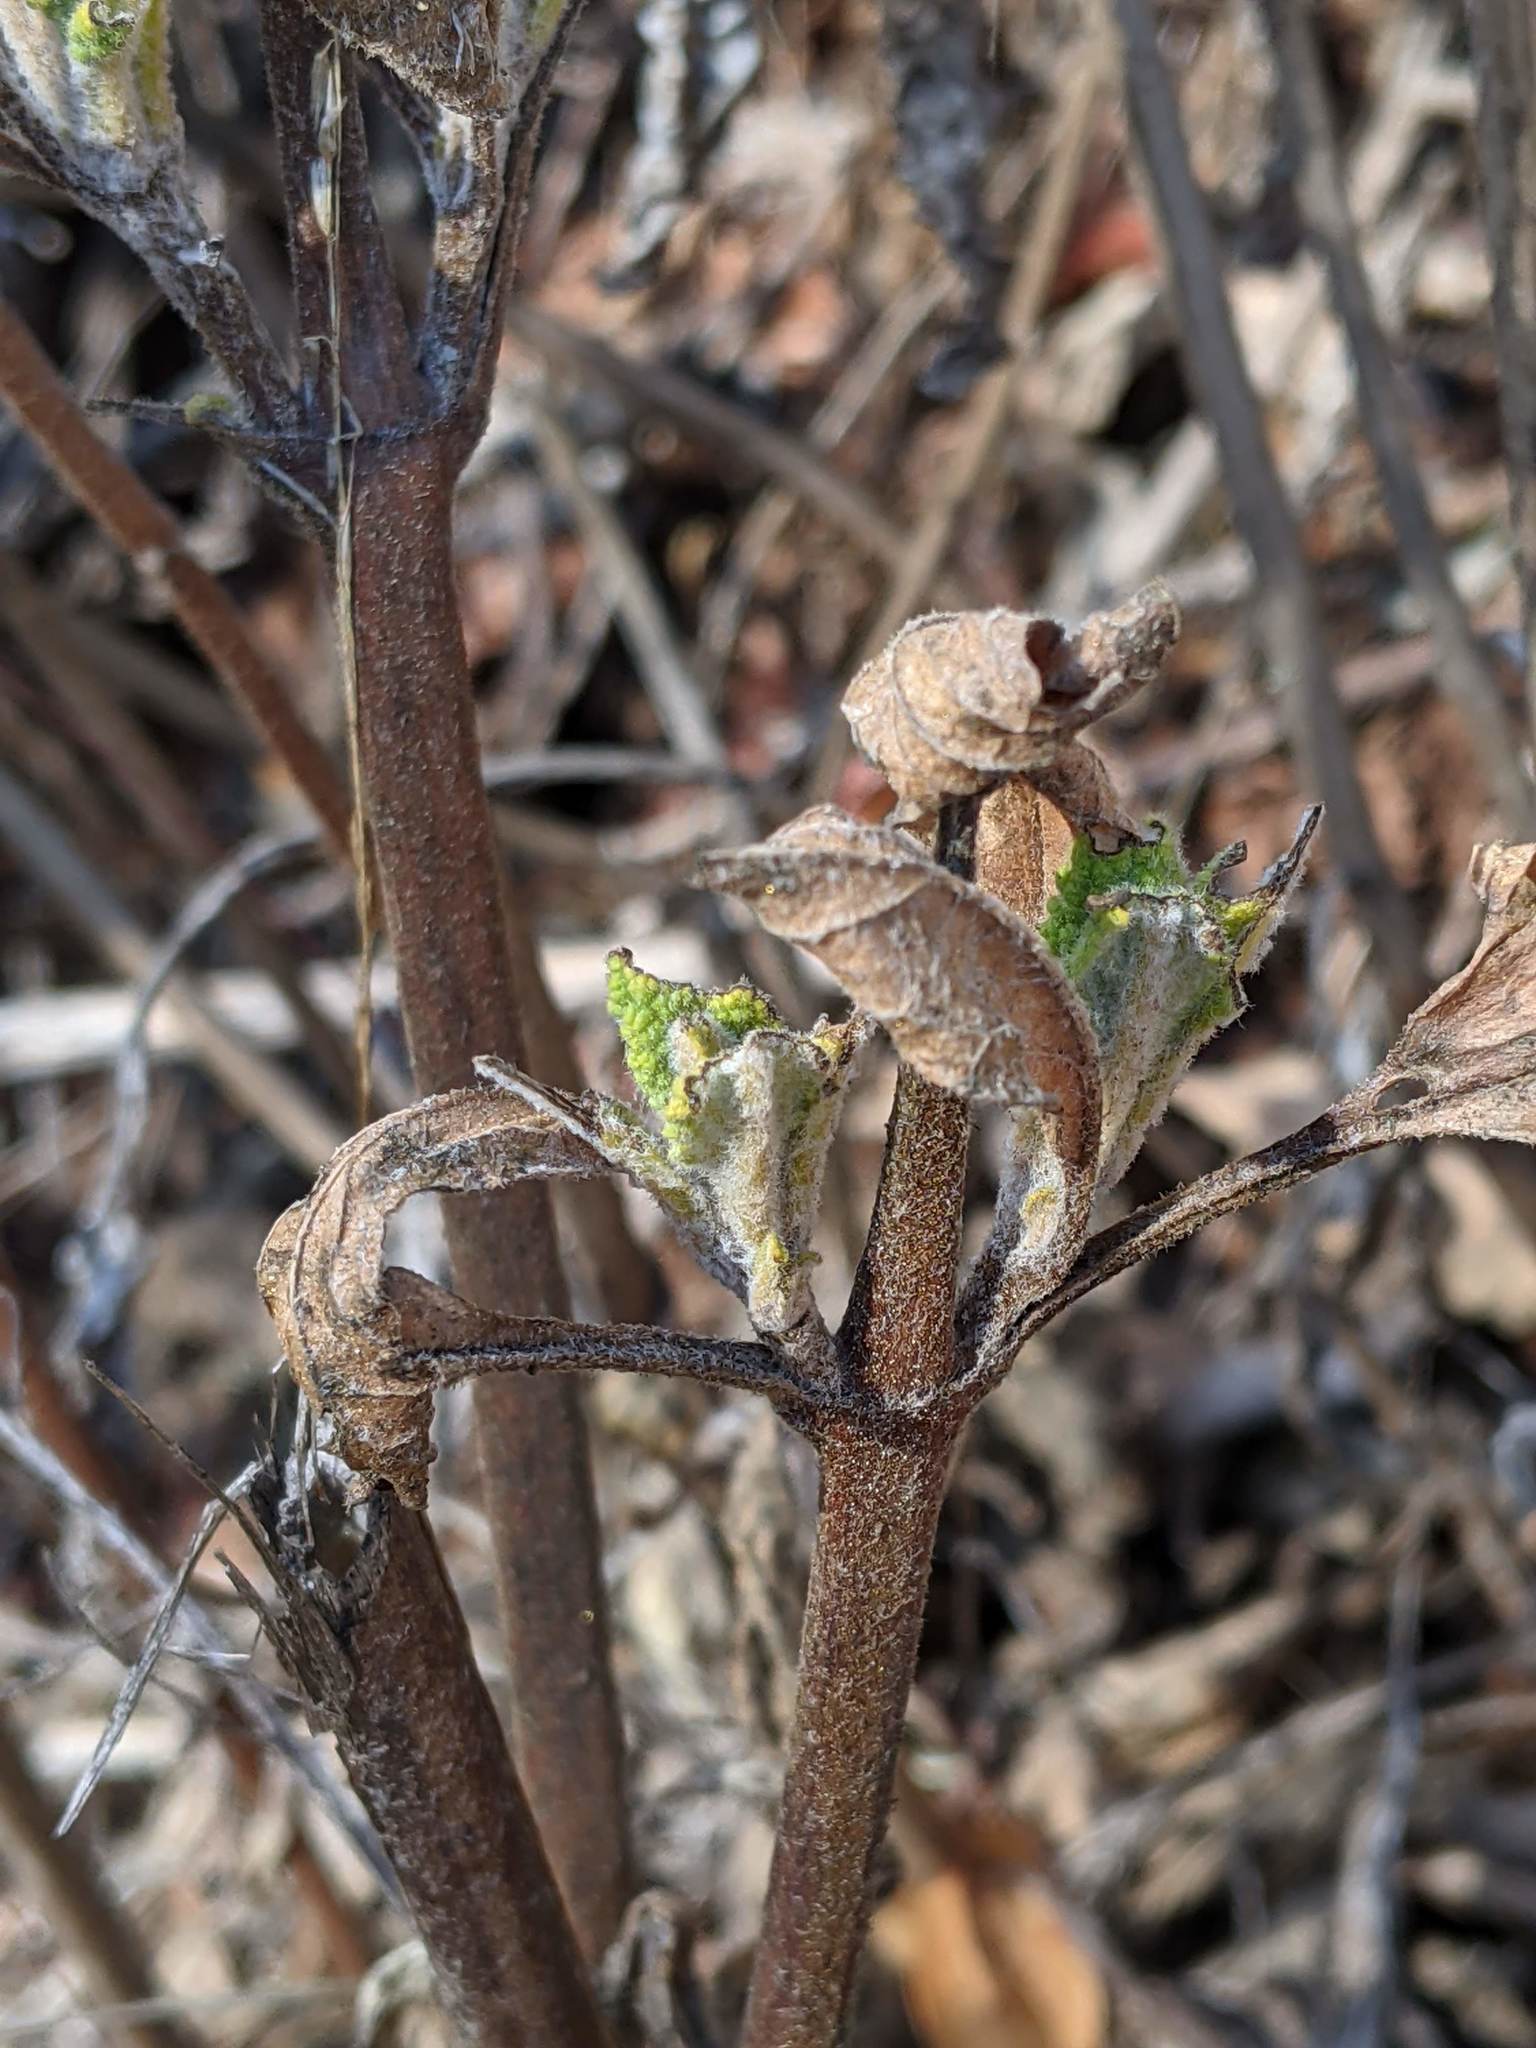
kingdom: Plantae
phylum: Tracheophyta
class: Magnoliopsida
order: Lamiales
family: Lamiaceae
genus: Lepechinia
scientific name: Lepechinia calycina
